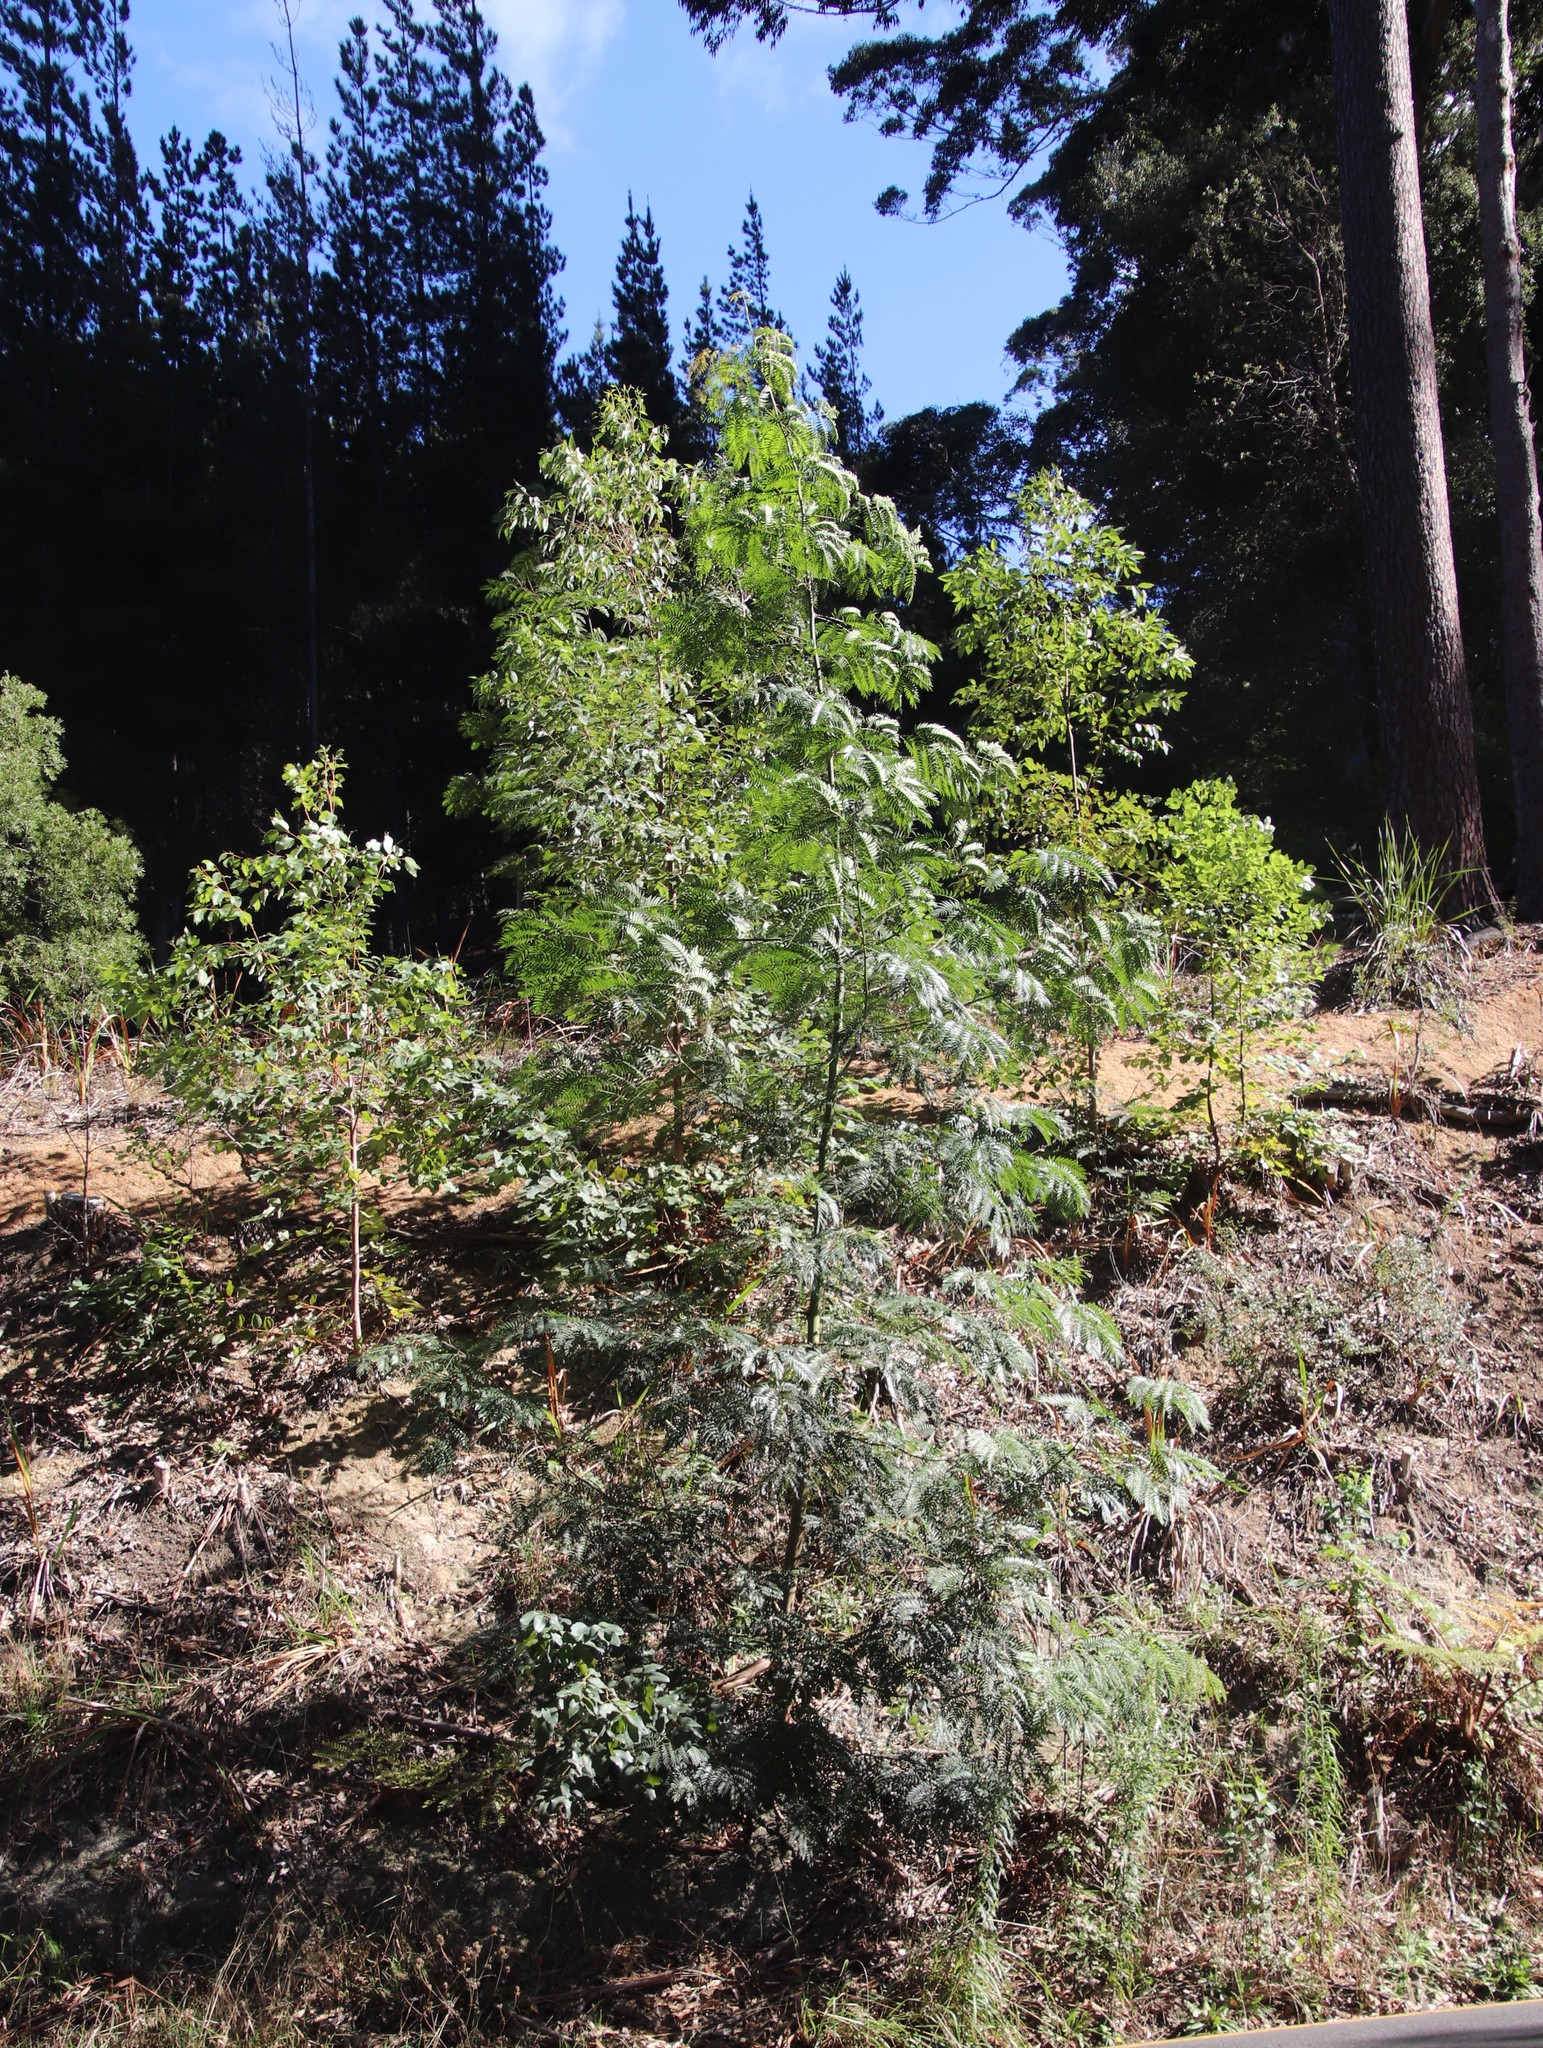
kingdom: Plantae
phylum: Tracheophyta
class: Magnoliopsida
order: Fabales
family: Fabaceae
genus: Acacia
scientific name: Acacia elata
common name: Cedar wattle
